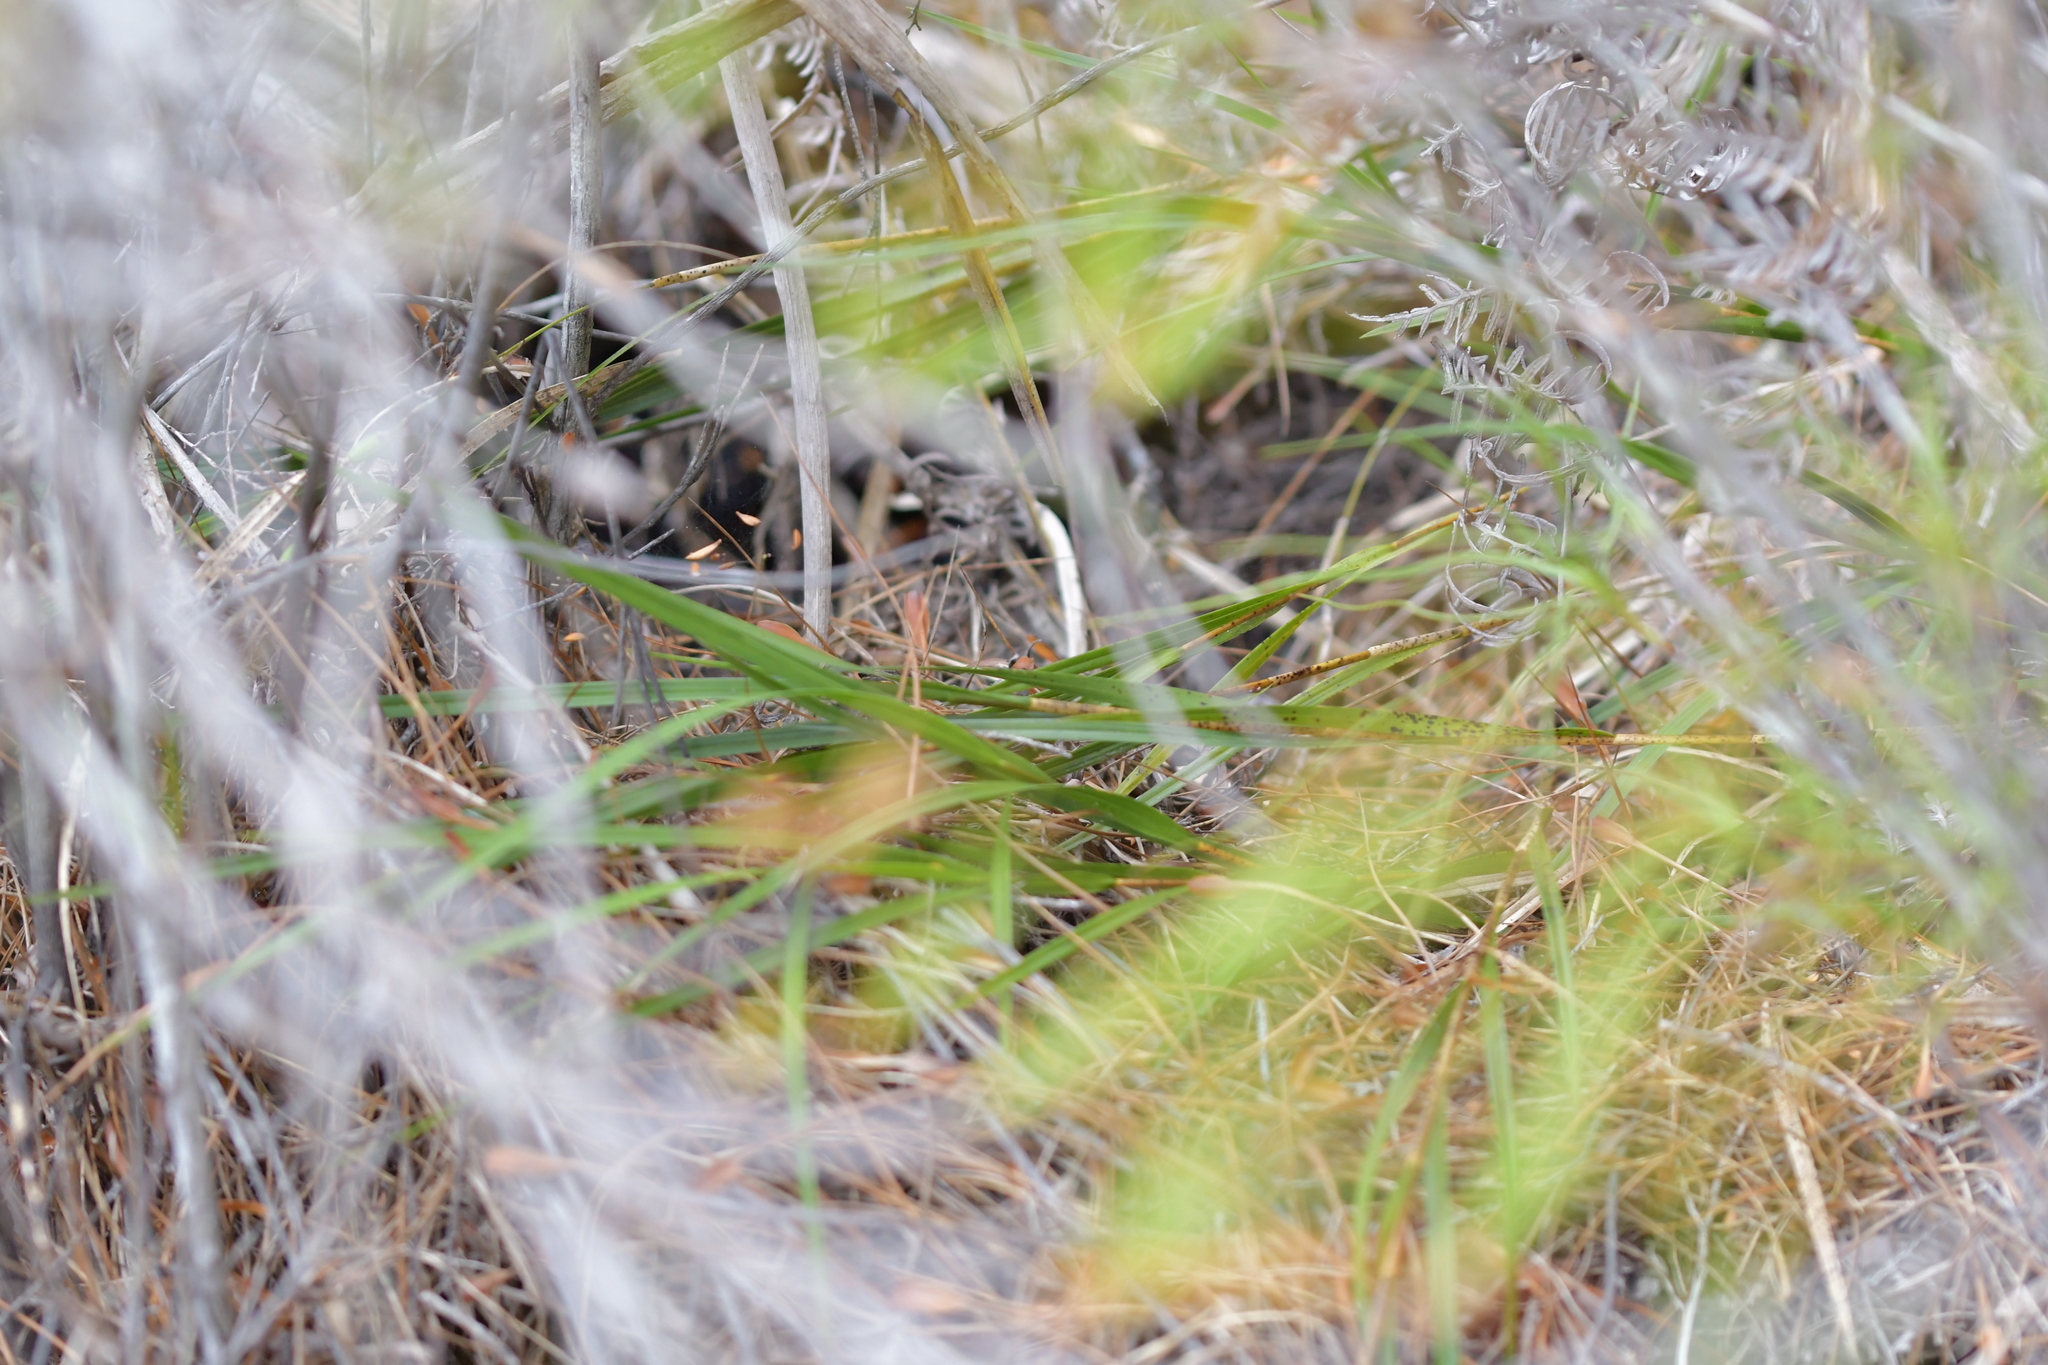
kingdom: Plantae
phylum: Tracheophyta
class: Liliopsida
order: Asparagales
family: Orchidaceae
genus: Earina
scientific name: Earina mucronata
